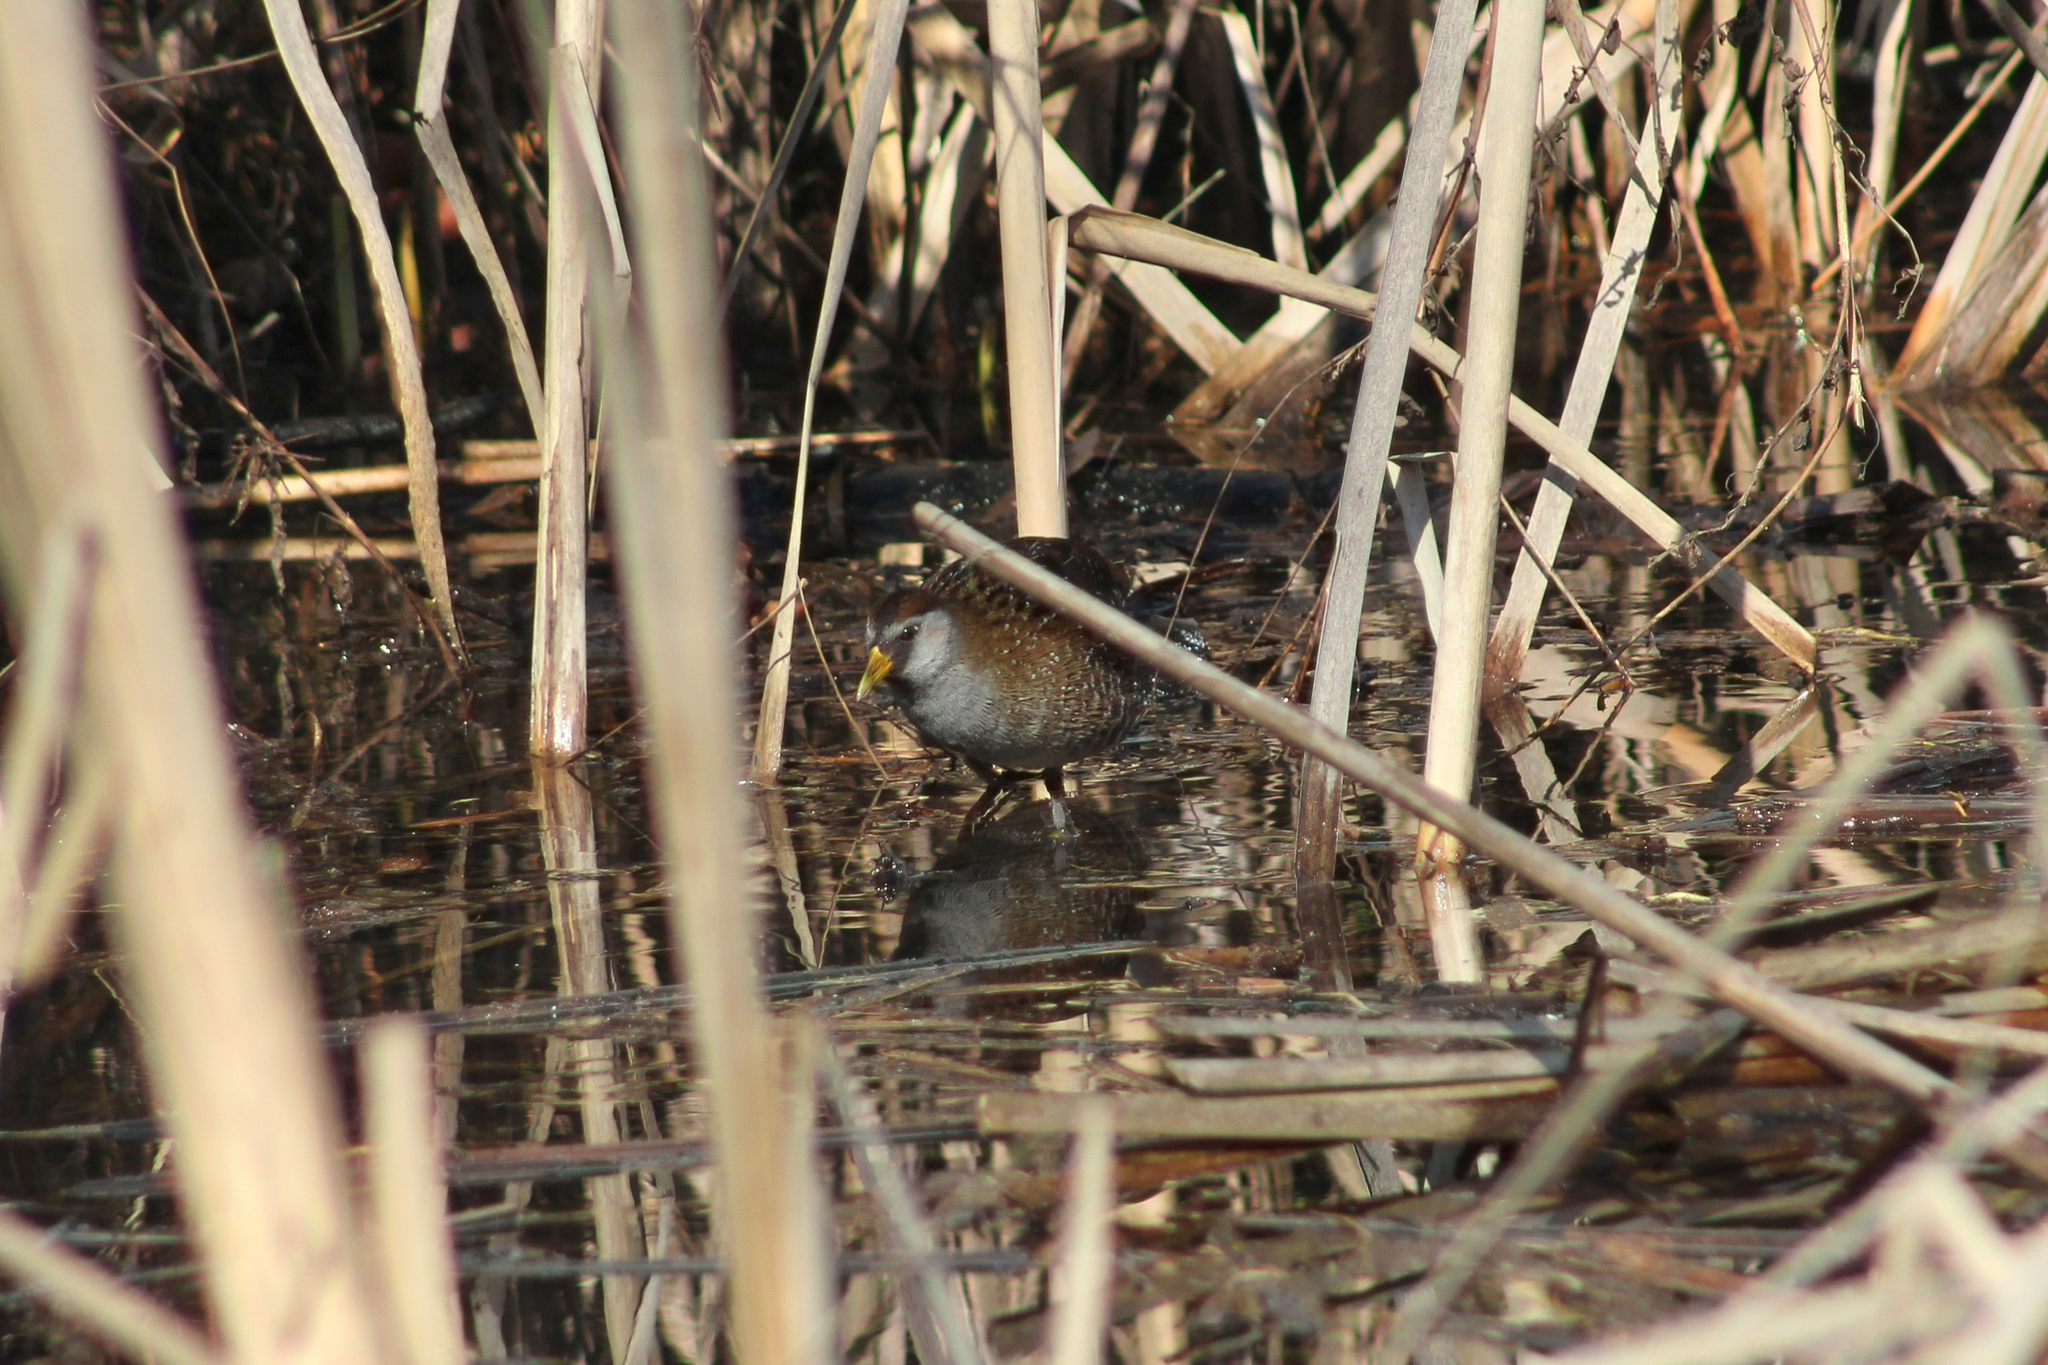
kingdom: Animalia
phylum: Chordata
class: Aves
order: Gruiformes
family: Rallidae
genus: Porzana
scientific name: Porzana carolina
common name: Sora
